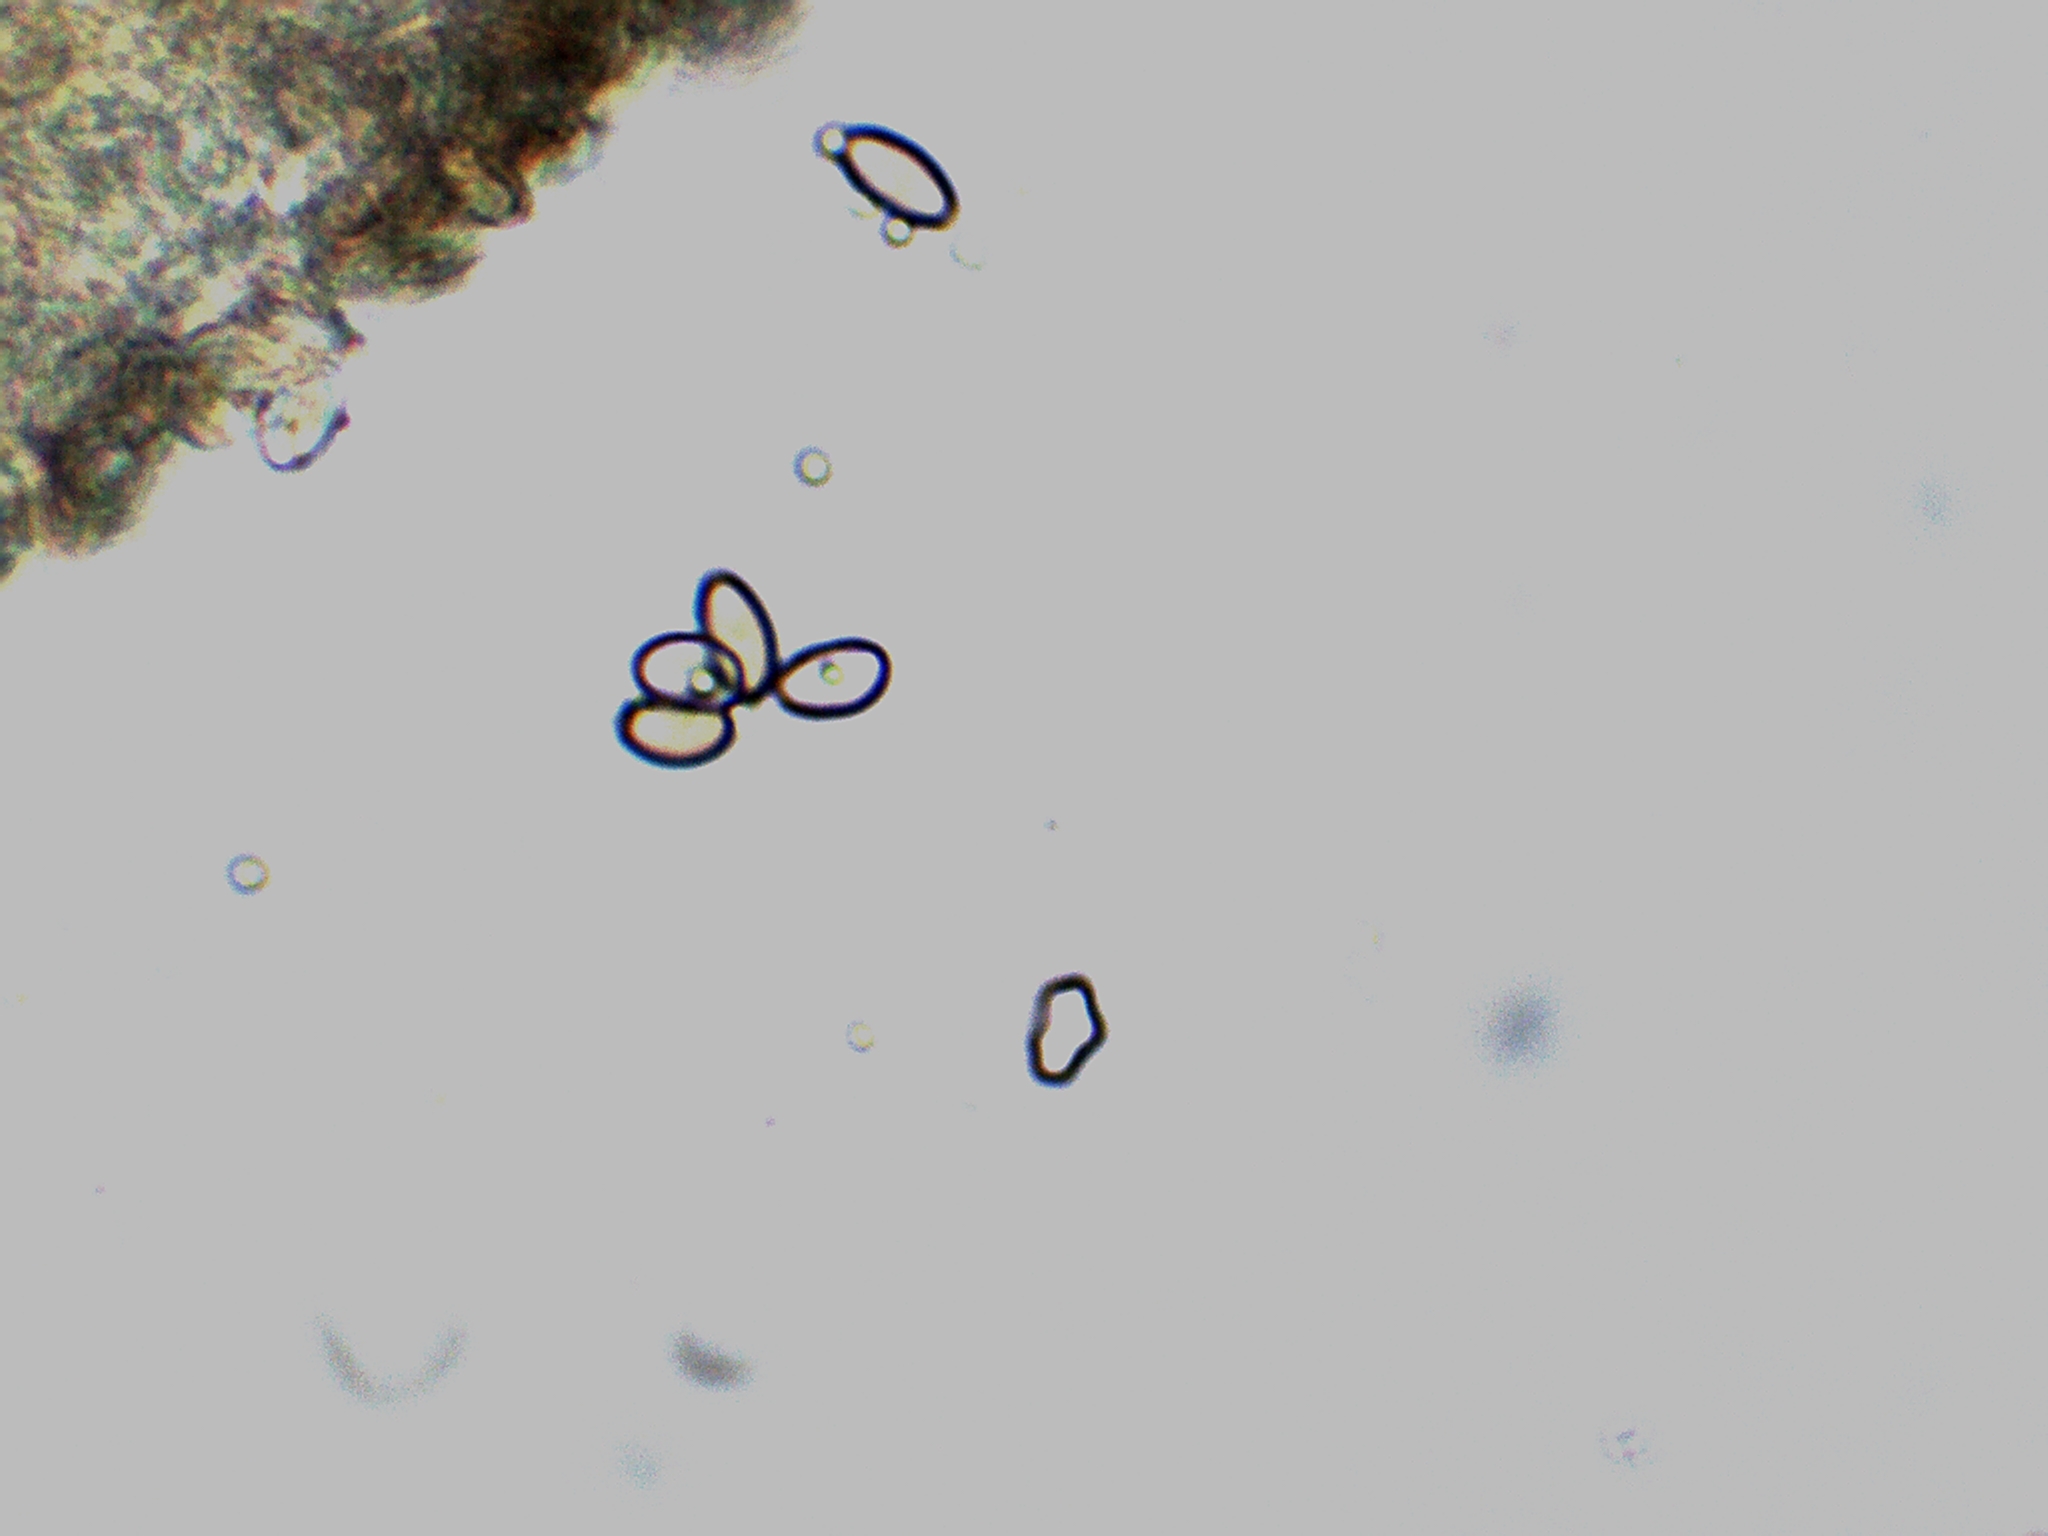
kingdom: Fungi
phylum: Basidiomycota
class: Agaricomycetes
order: Agaricales
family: Hymenogastraceae
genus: Psilocybe
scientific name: Psilocybe caerulipes
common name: Blue-foot
